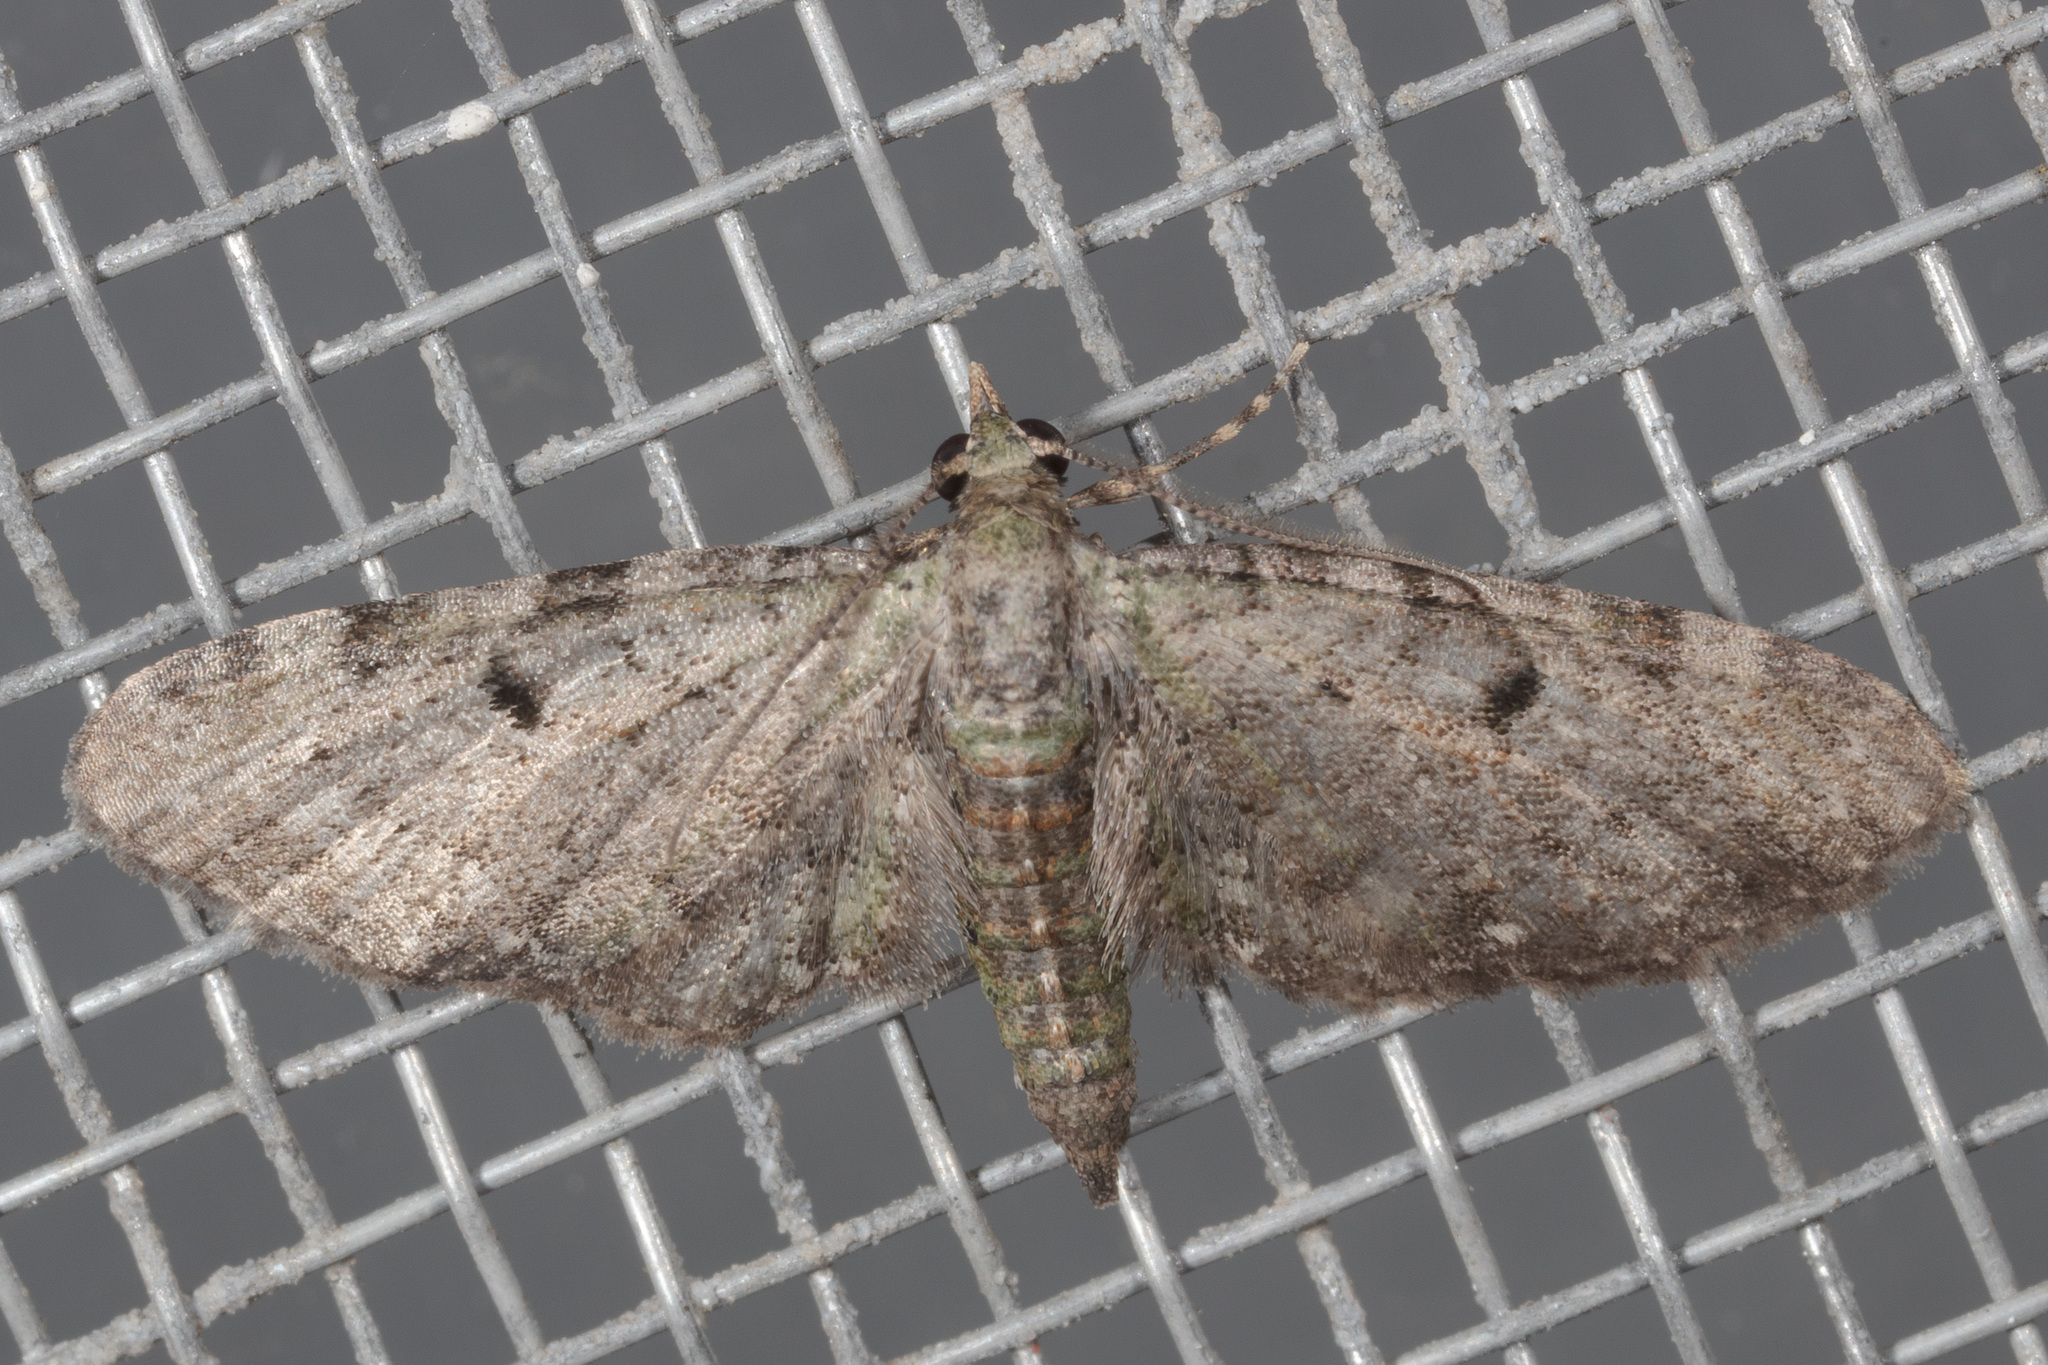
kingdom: Animalia
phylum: Arthropoda
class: Insecta
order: Lepidoptera
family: Geometridae
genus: Eupithecia
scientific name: Eupithecia miserulata
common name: Common eupithecia
